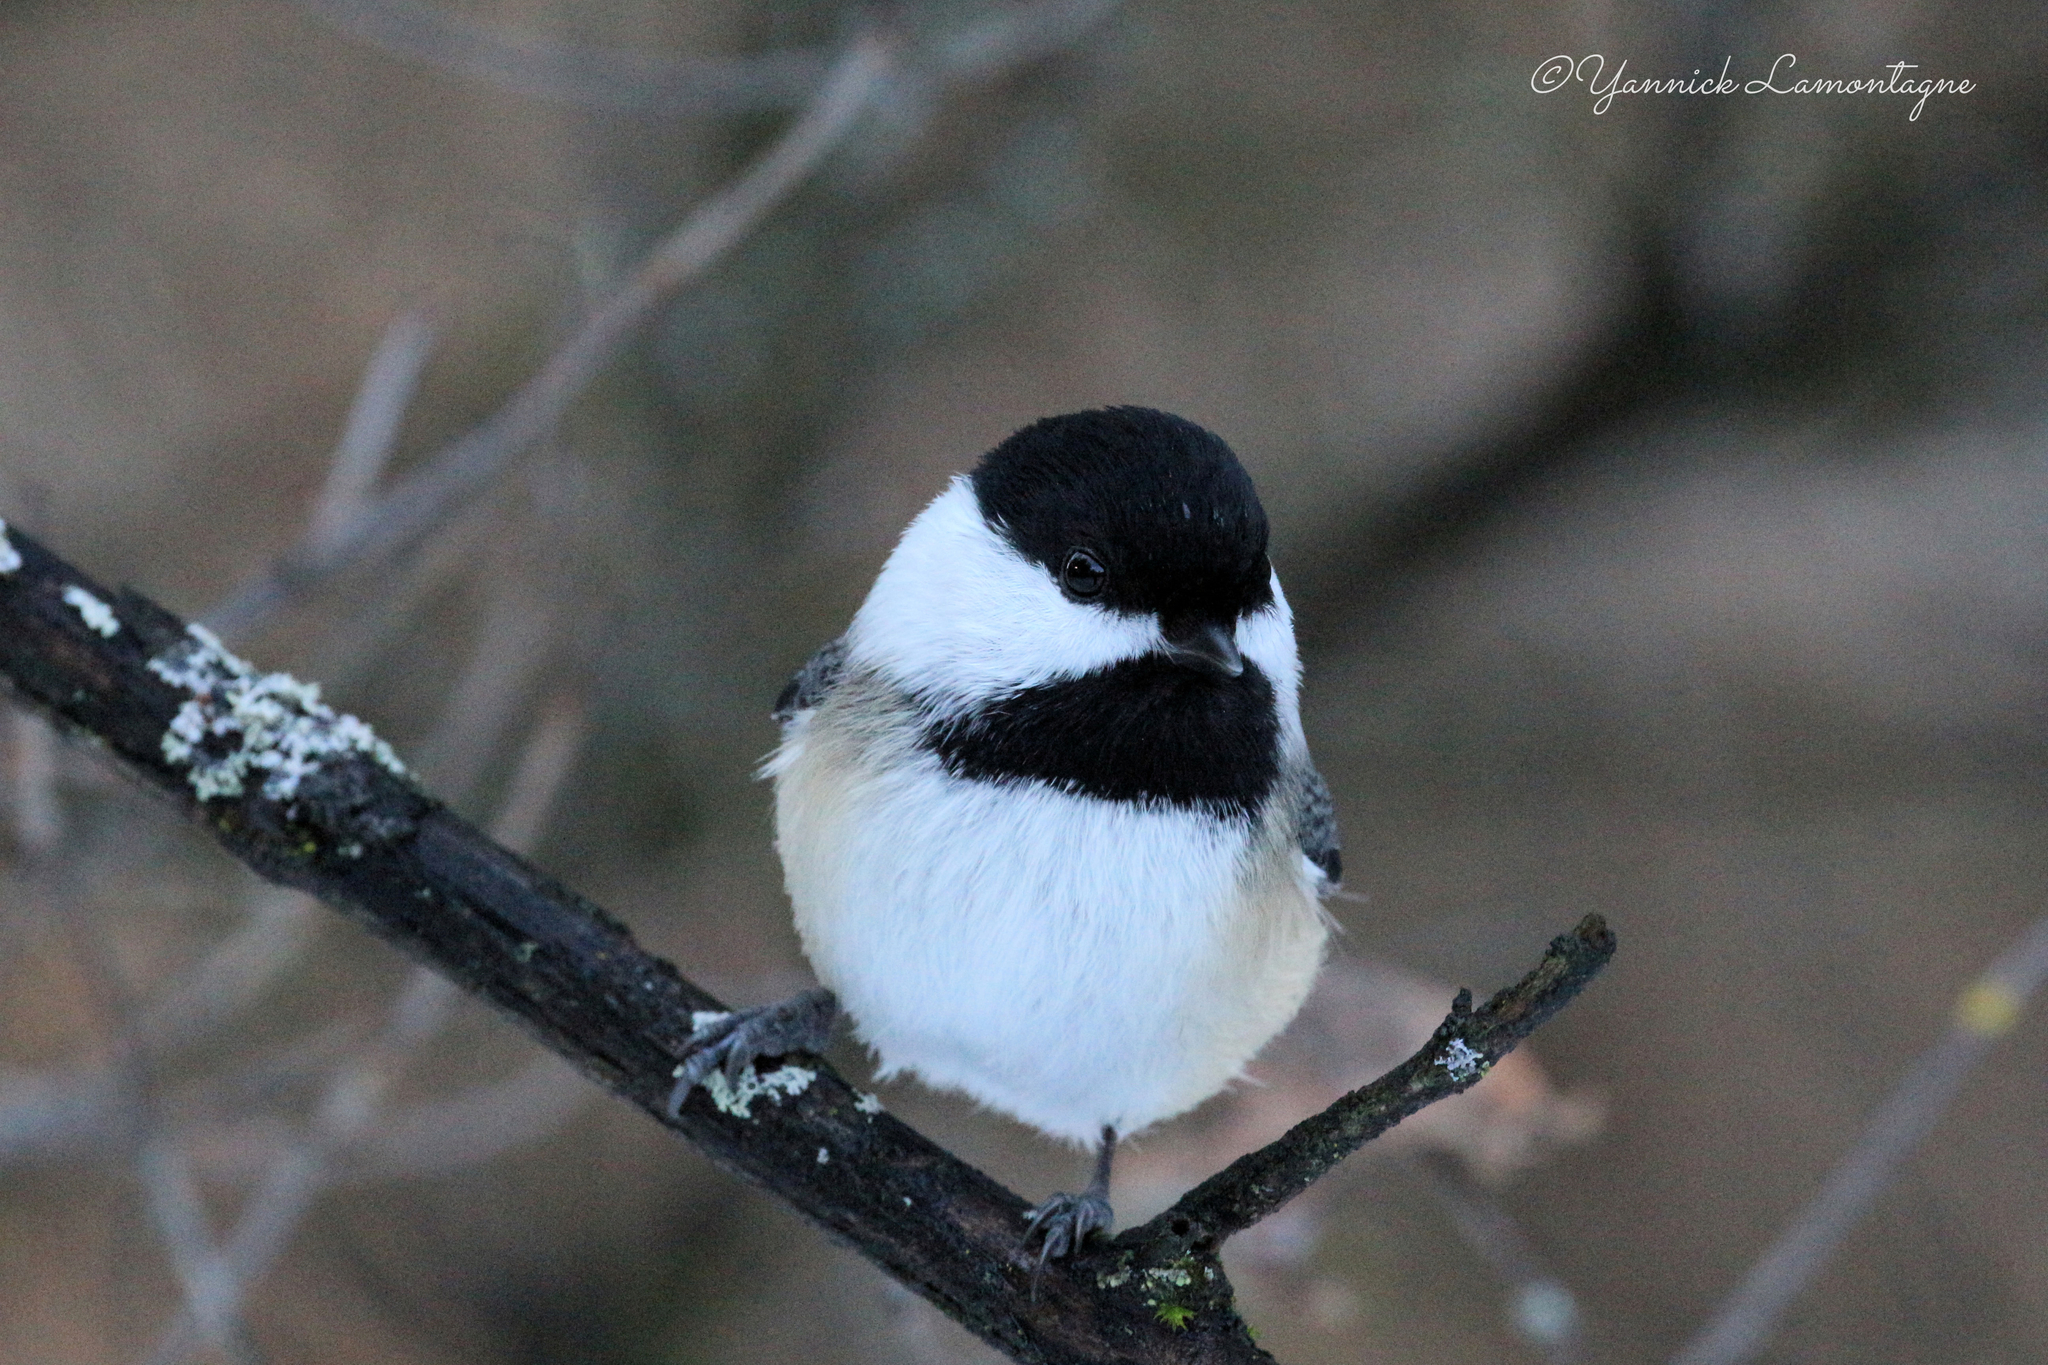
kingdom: Animalia
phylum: Chordata
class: Aves
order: Passeriformes
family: Paridae
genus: Poecile
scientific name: Poecile atricapillus
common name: Black-capped chickadee
